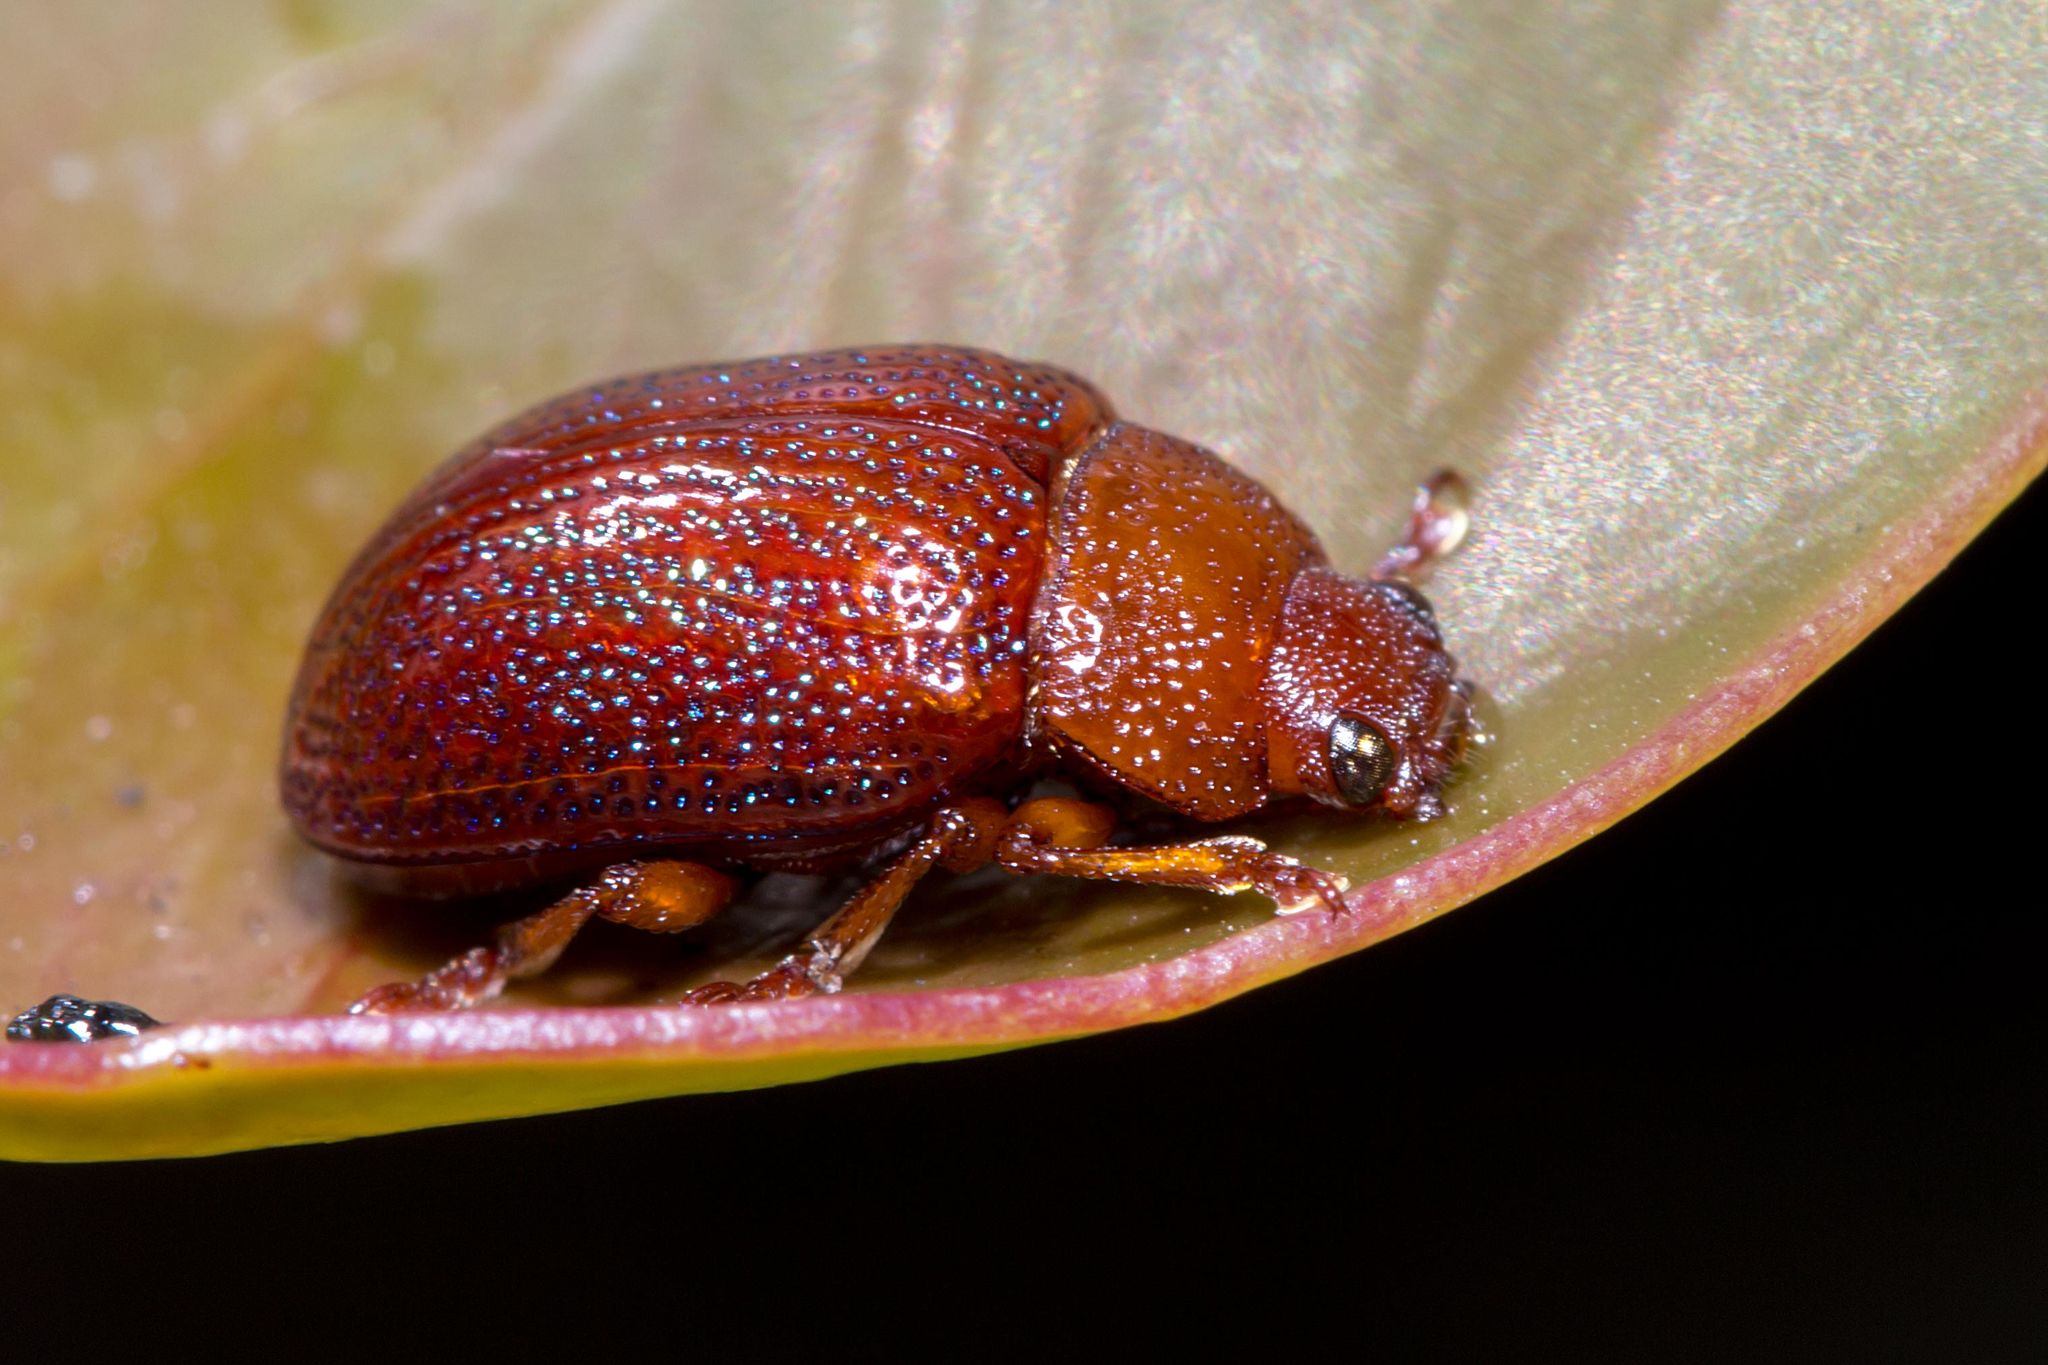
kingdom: Animalia
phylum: Arthropoda
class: Insecta
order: Coleoptera
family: Chrysomelidae
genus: Calomela
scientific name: Calomela
